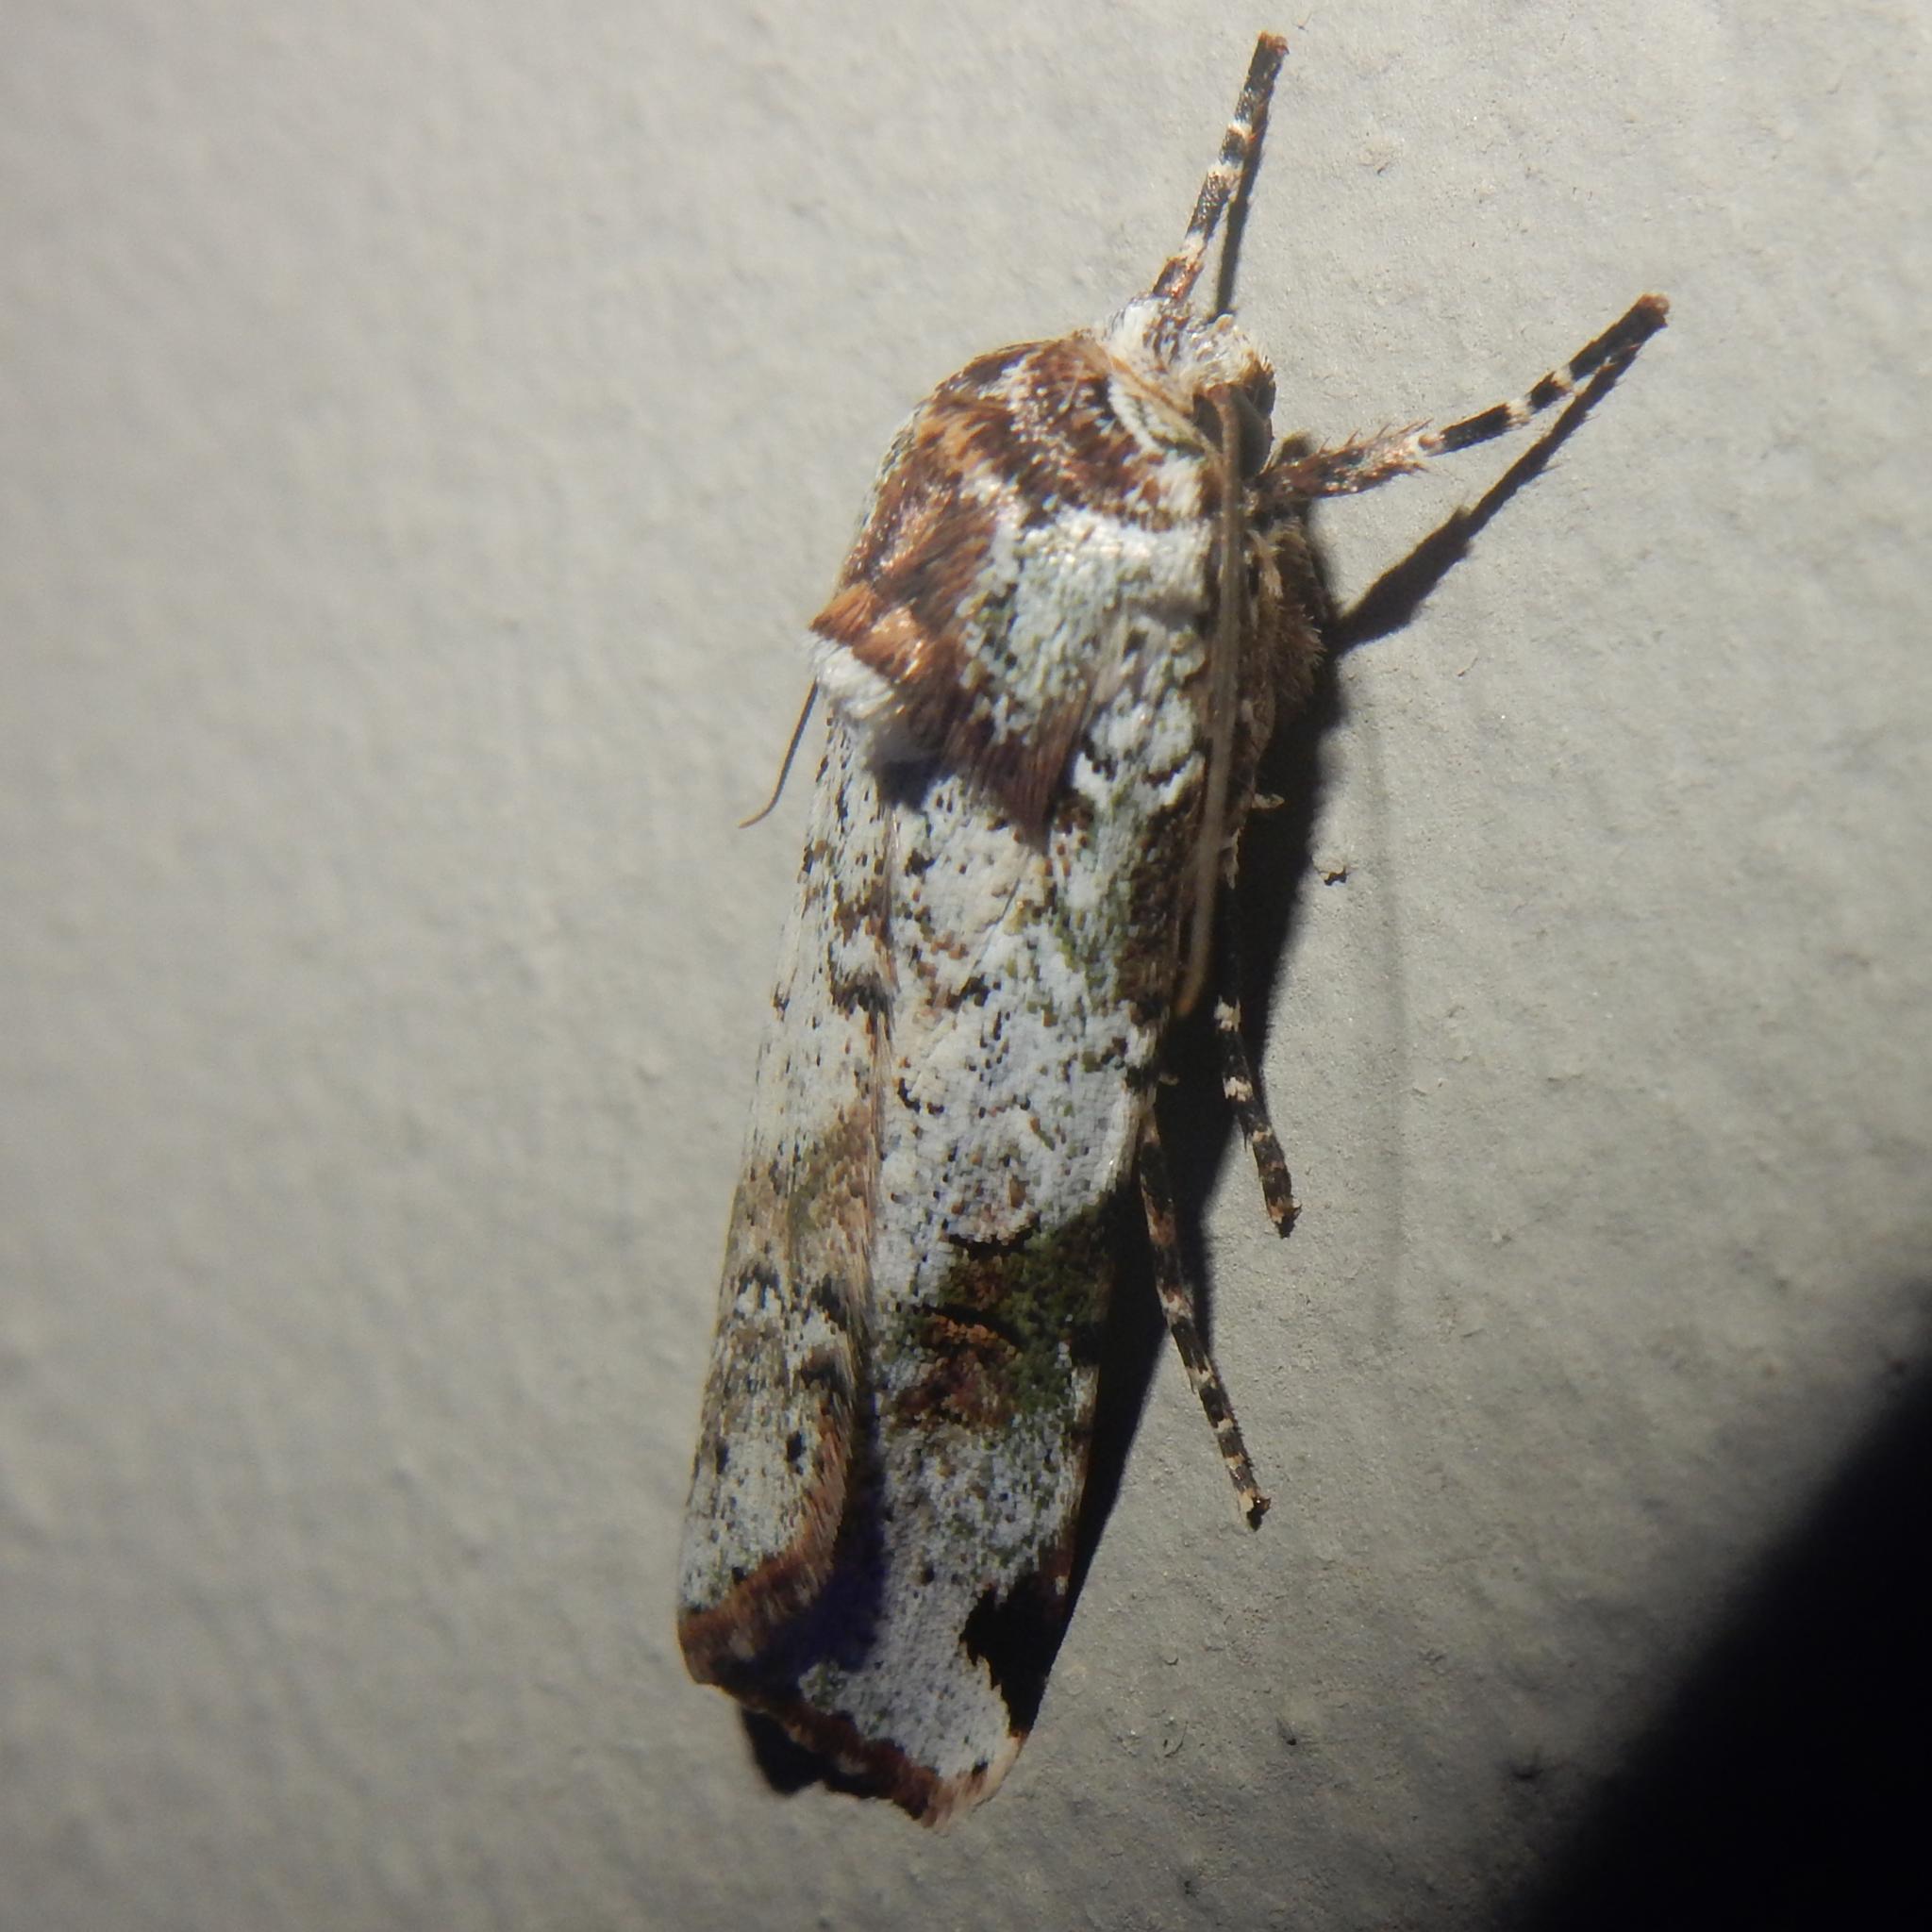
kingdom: Animalia
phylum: Arthropoda
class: Insecta
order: Lepidoptera
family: Noctuidae
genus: Mentaxya
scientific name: Mentaxya ignicollis
